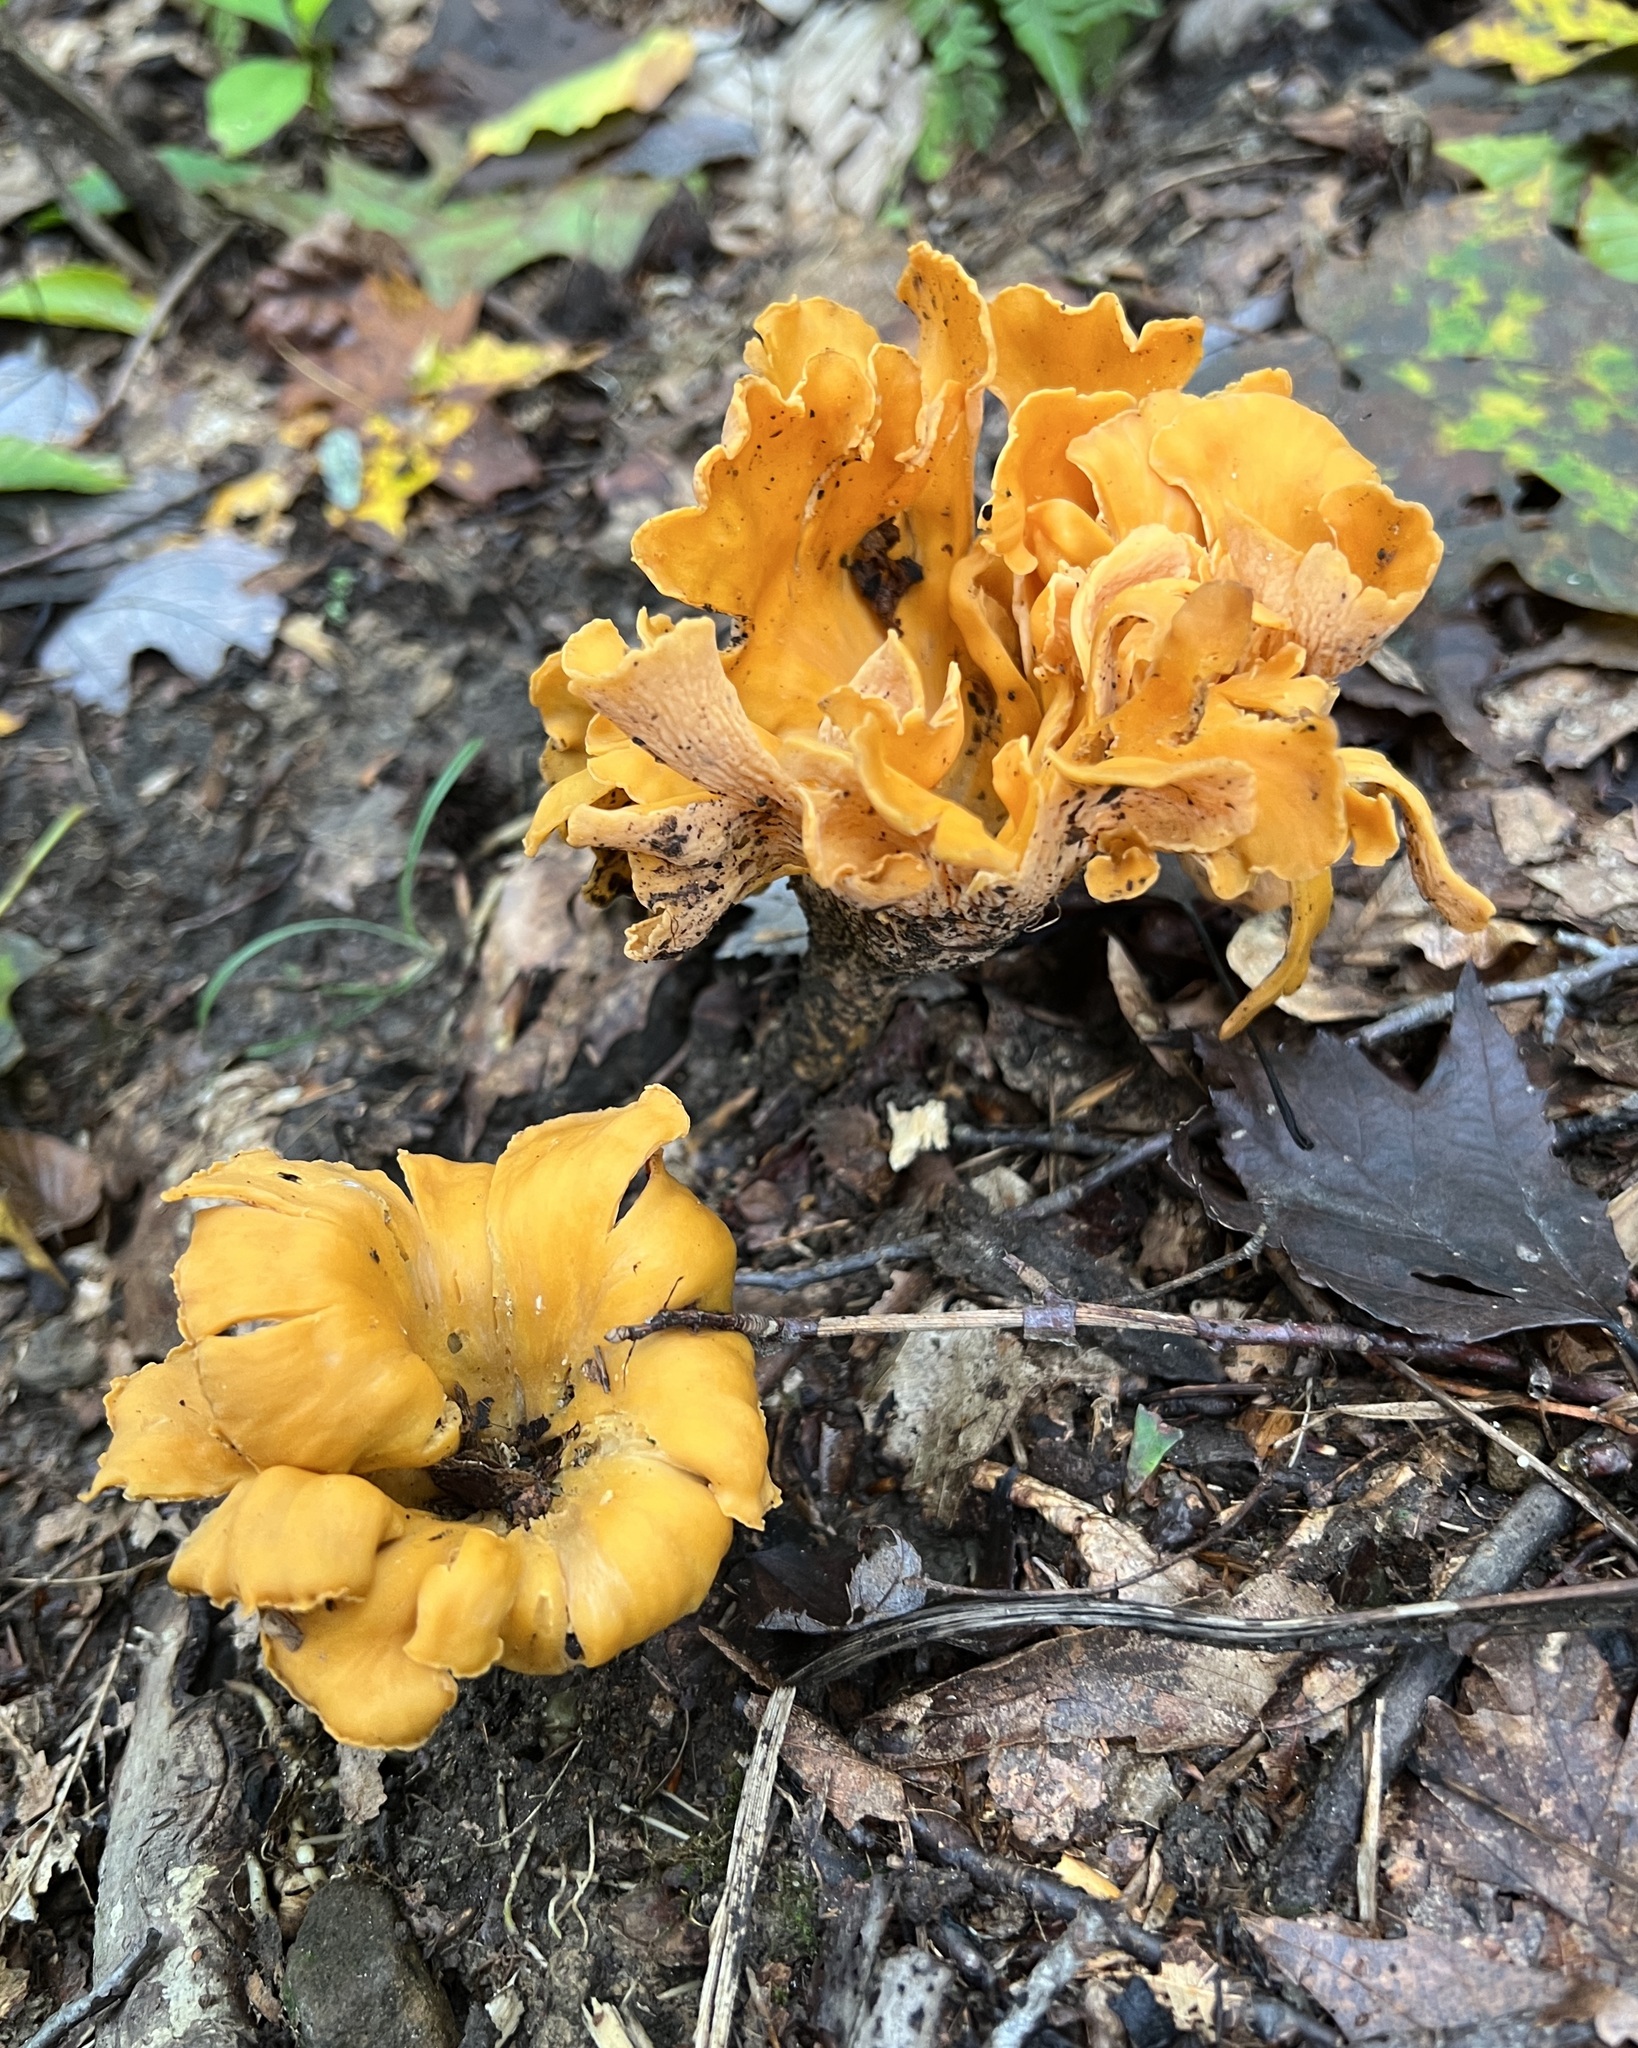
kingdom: Fungi
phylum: Basidiomycota
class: Agaricomycetes
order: Cantharellales
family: Hydnaceae
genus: Cantharellus
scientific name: Cantharellus lateritius
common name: Smooth chanterelle
